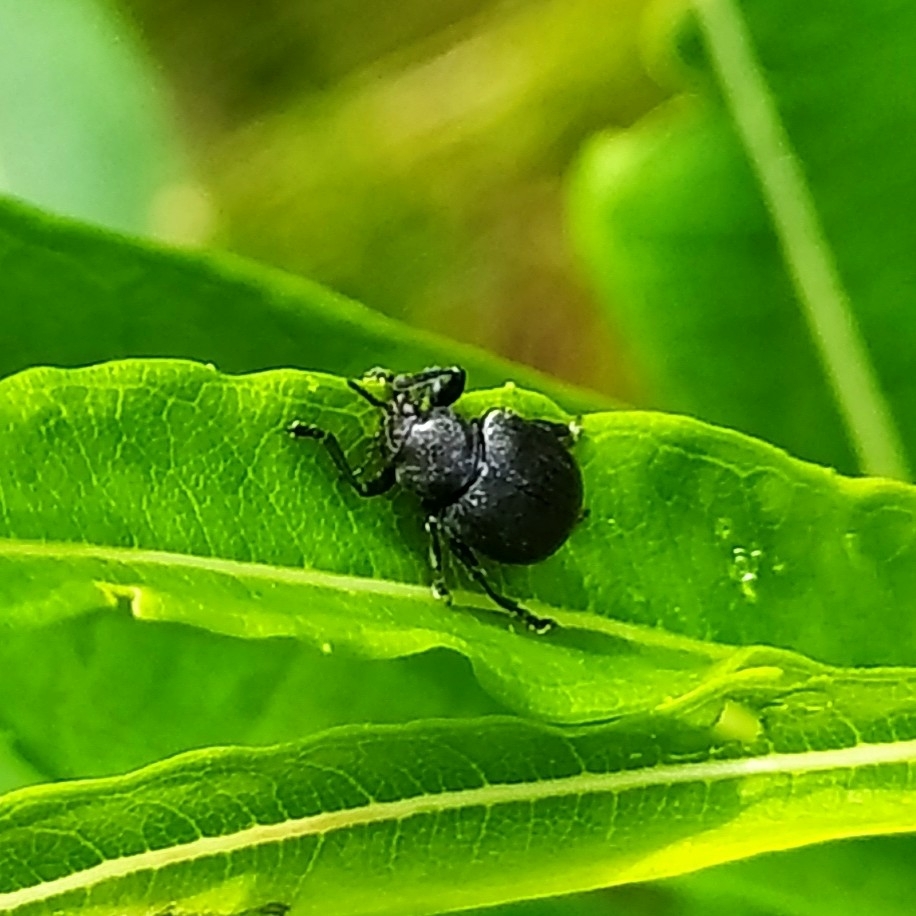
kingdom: Animalia
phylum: Arthropoda
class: Insecta
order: Coleoptera
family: Chrysomelidae
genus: Bromius
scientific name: Bromius obscurus
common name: Western grape rootworm
